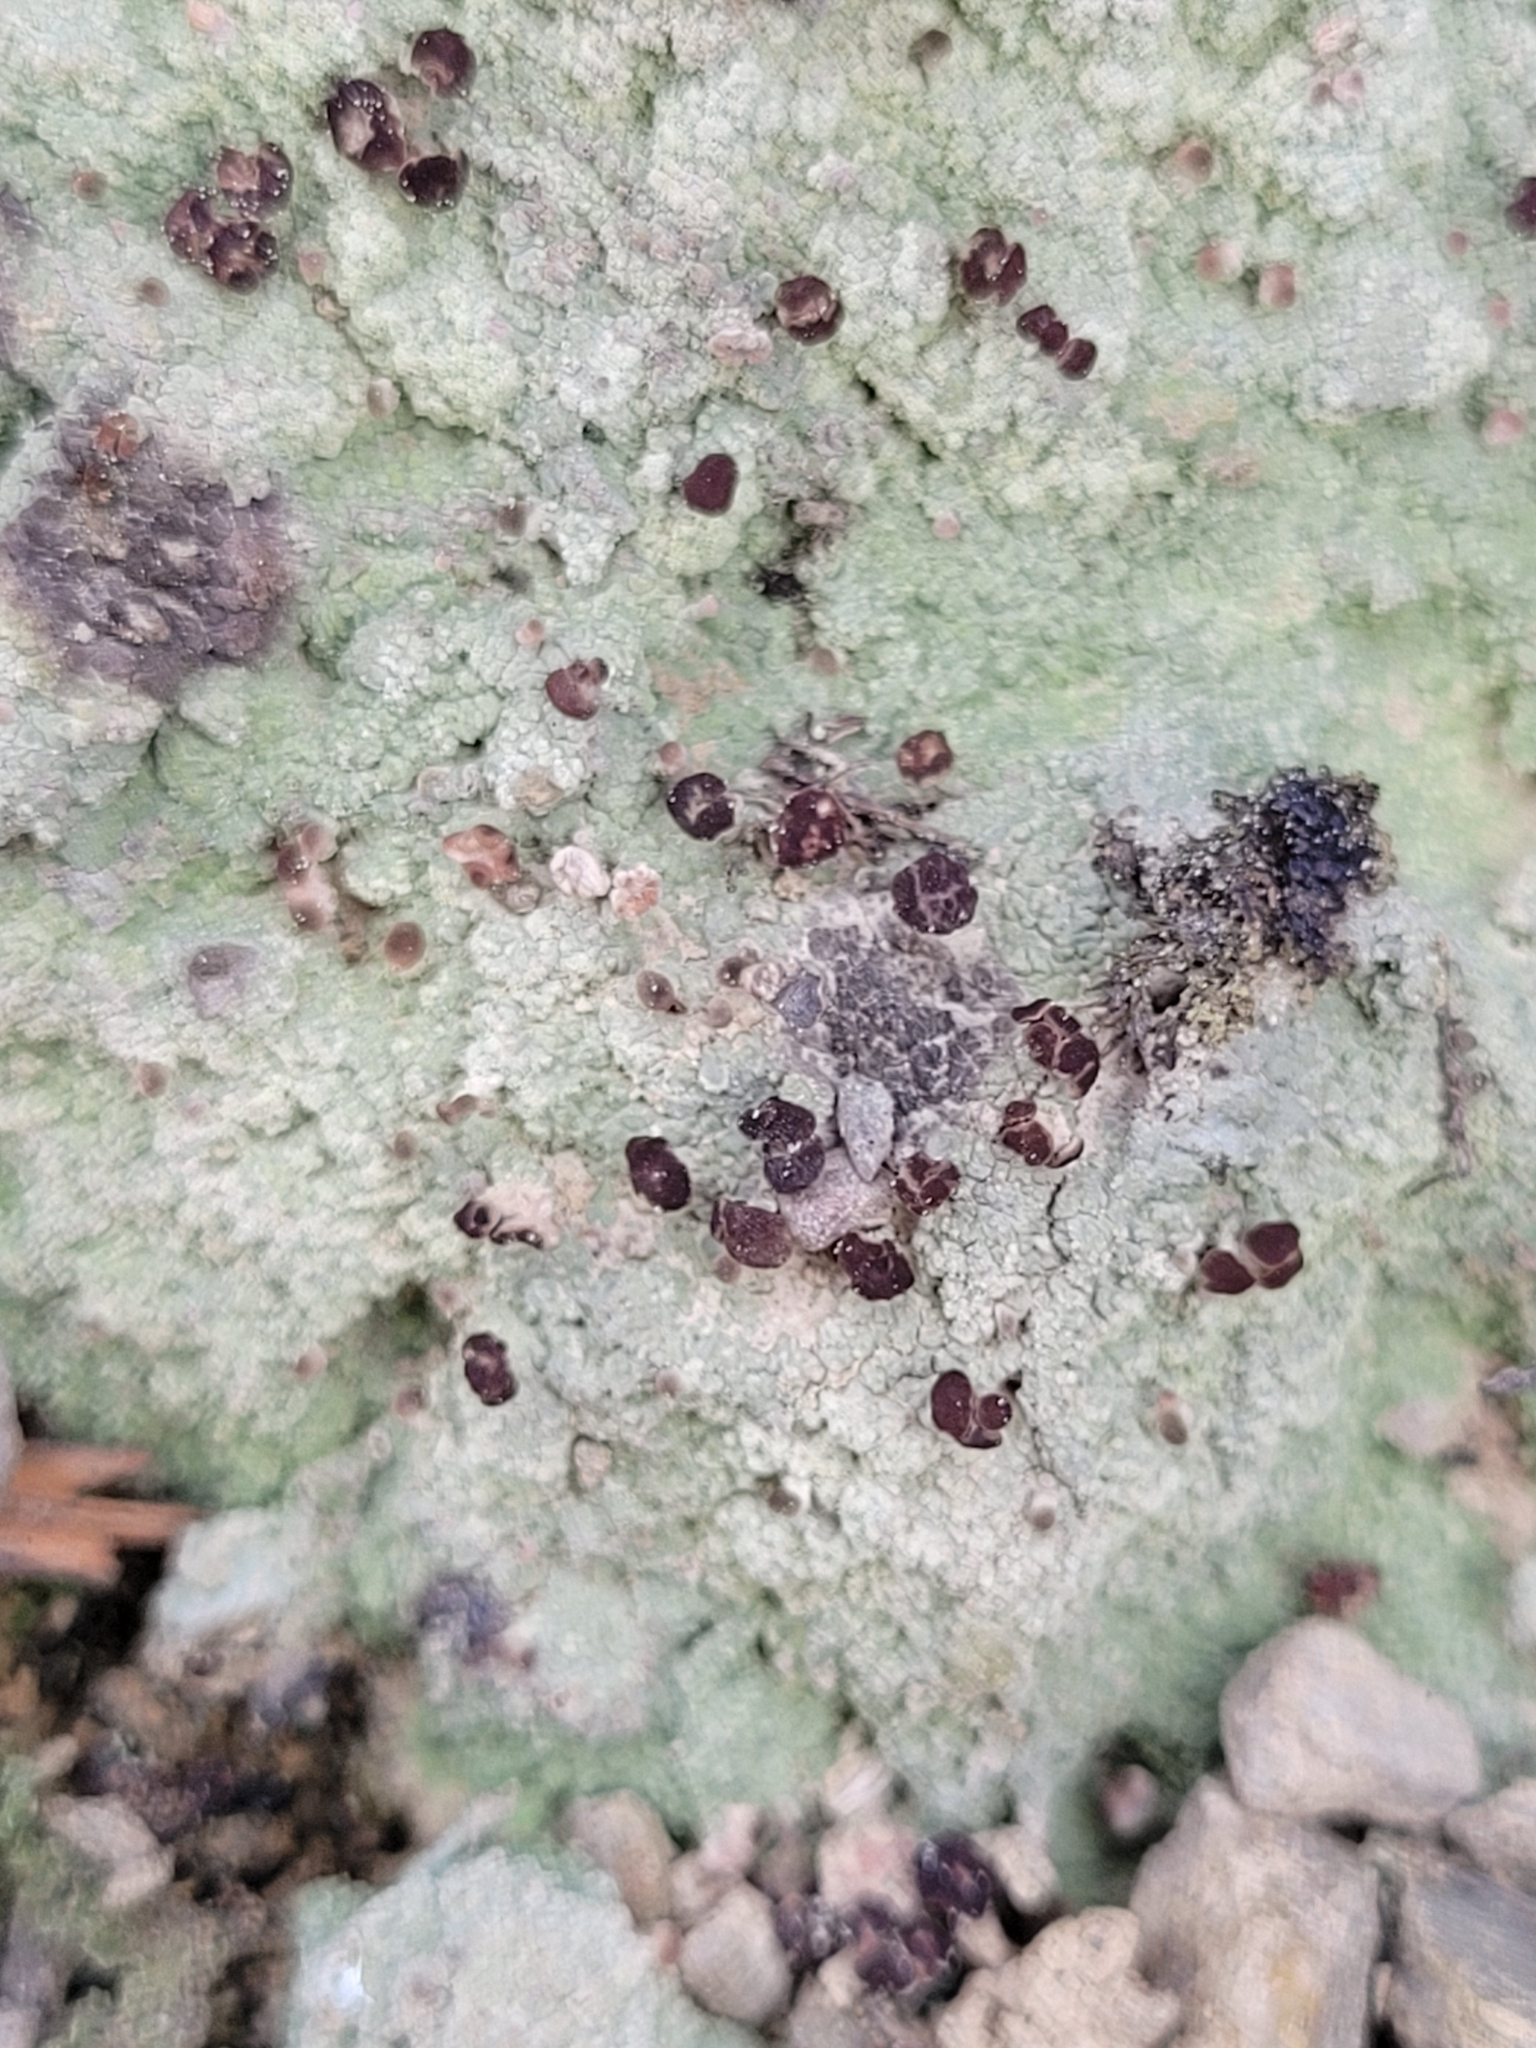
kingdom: Fungi
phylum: Ascomycota
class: Lecanoromycetes
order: Baeomycetales
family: Baeomycetaceae
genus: Baeomyces
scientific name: Baeomyces rufus
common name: Brown beret lichen
